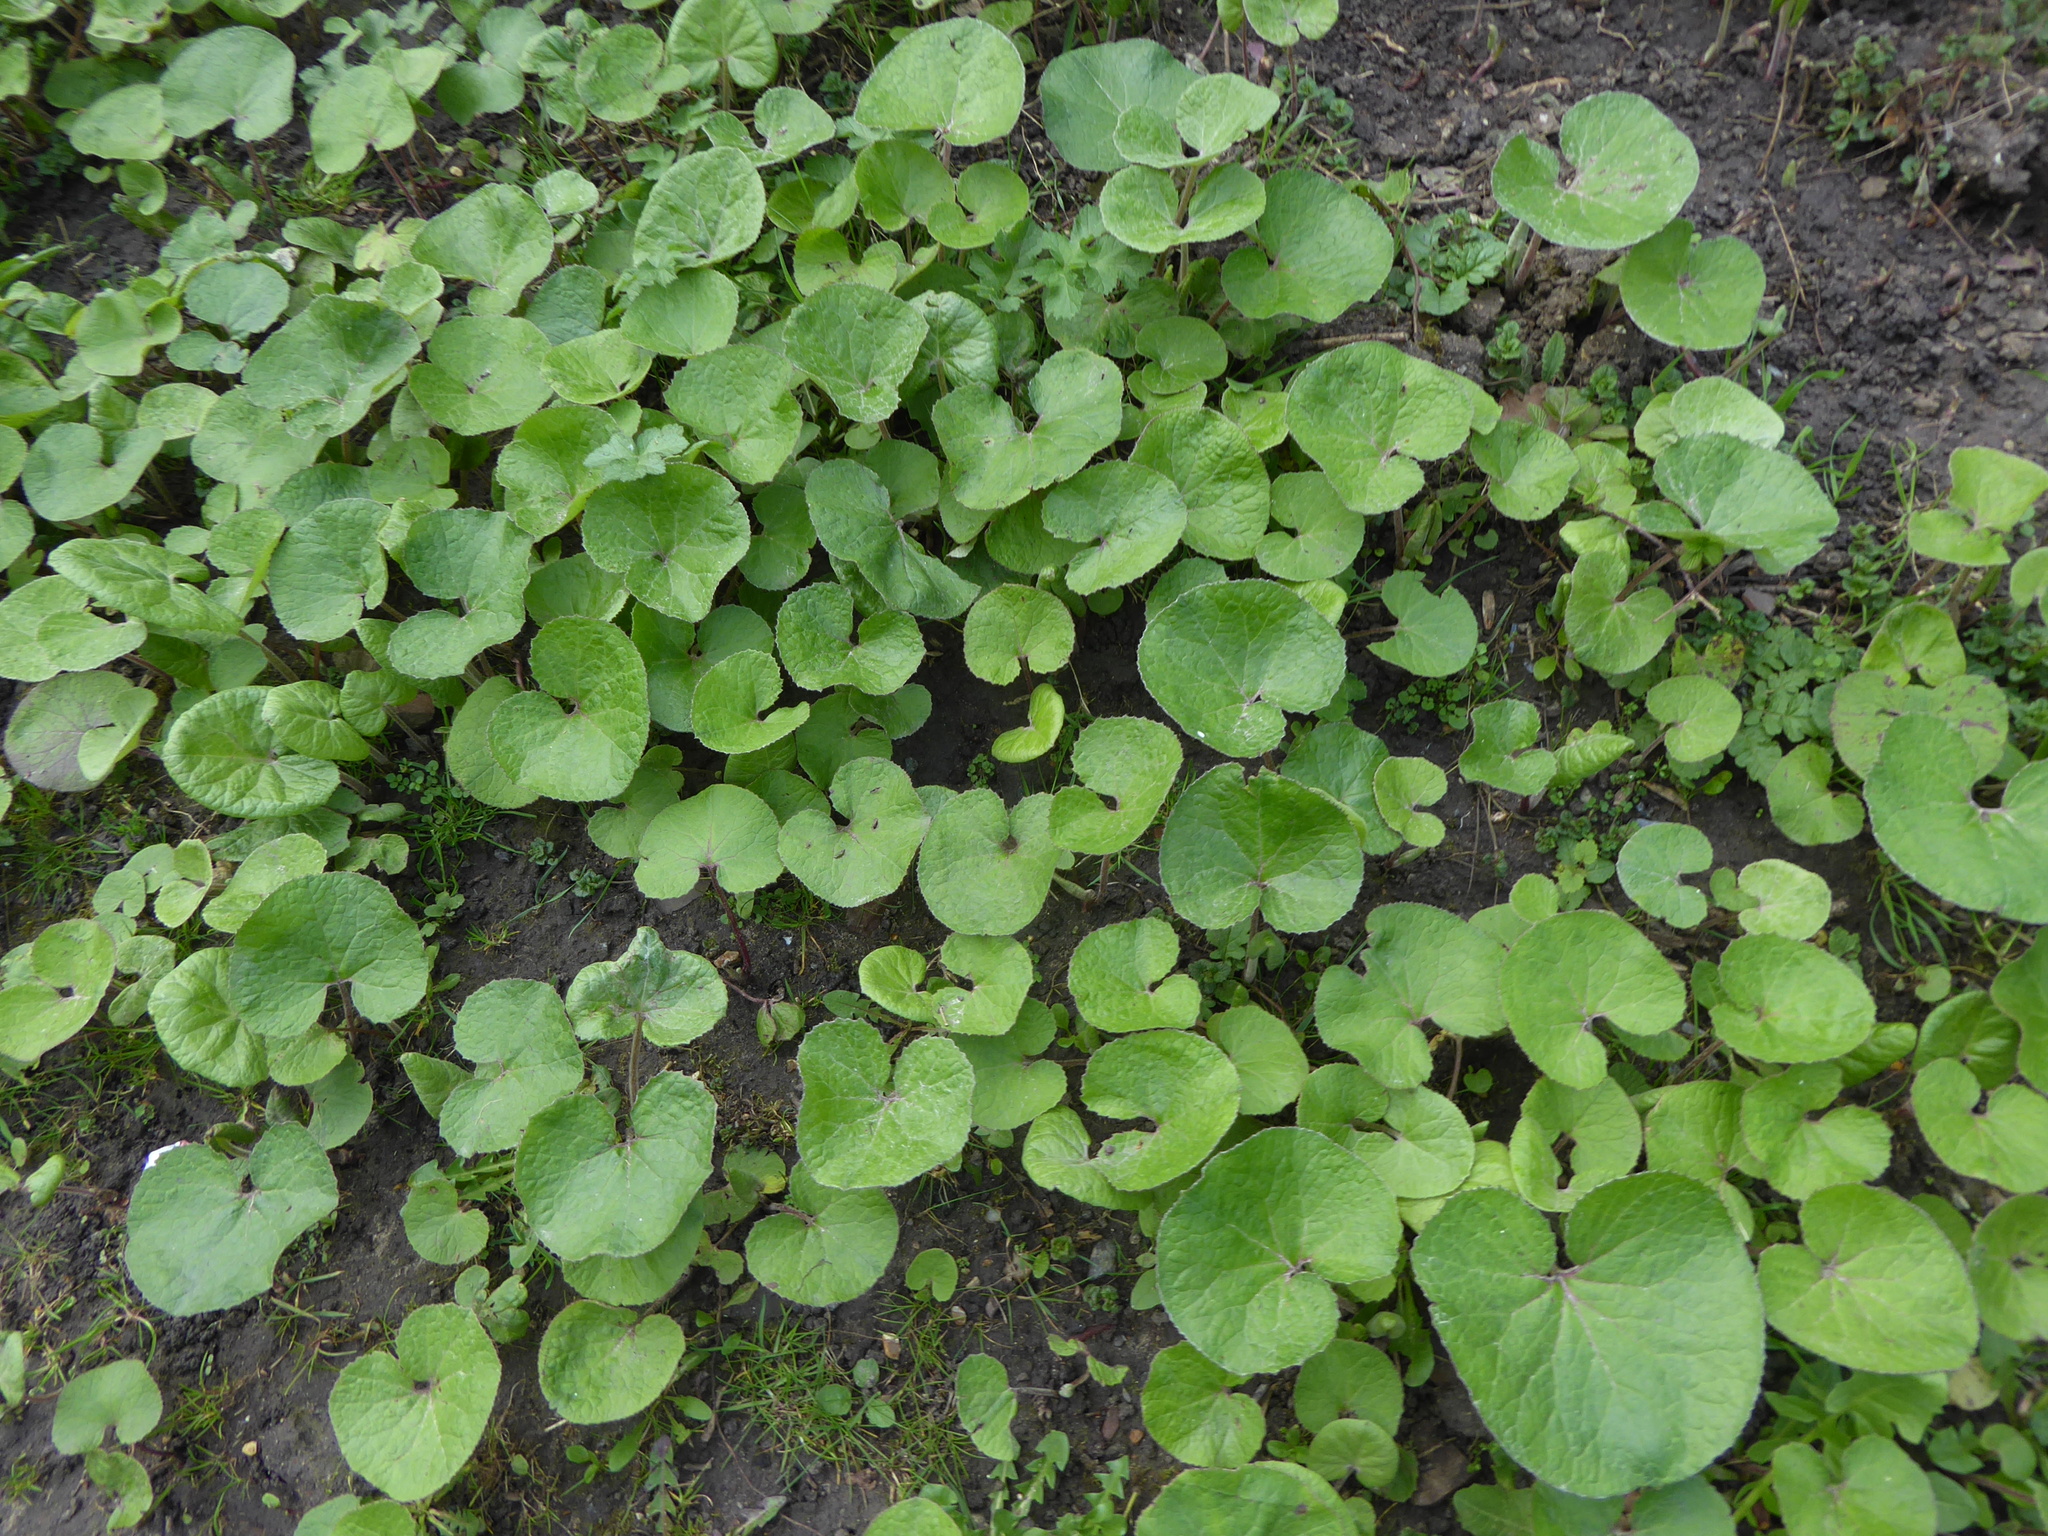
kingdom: Plantae
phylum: Tracheophyta
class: Magnoliopsida
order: Asterales
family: Asteraceae
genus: Petasites
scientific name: Petasites pyrenaicus
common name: Winter heliotrope
